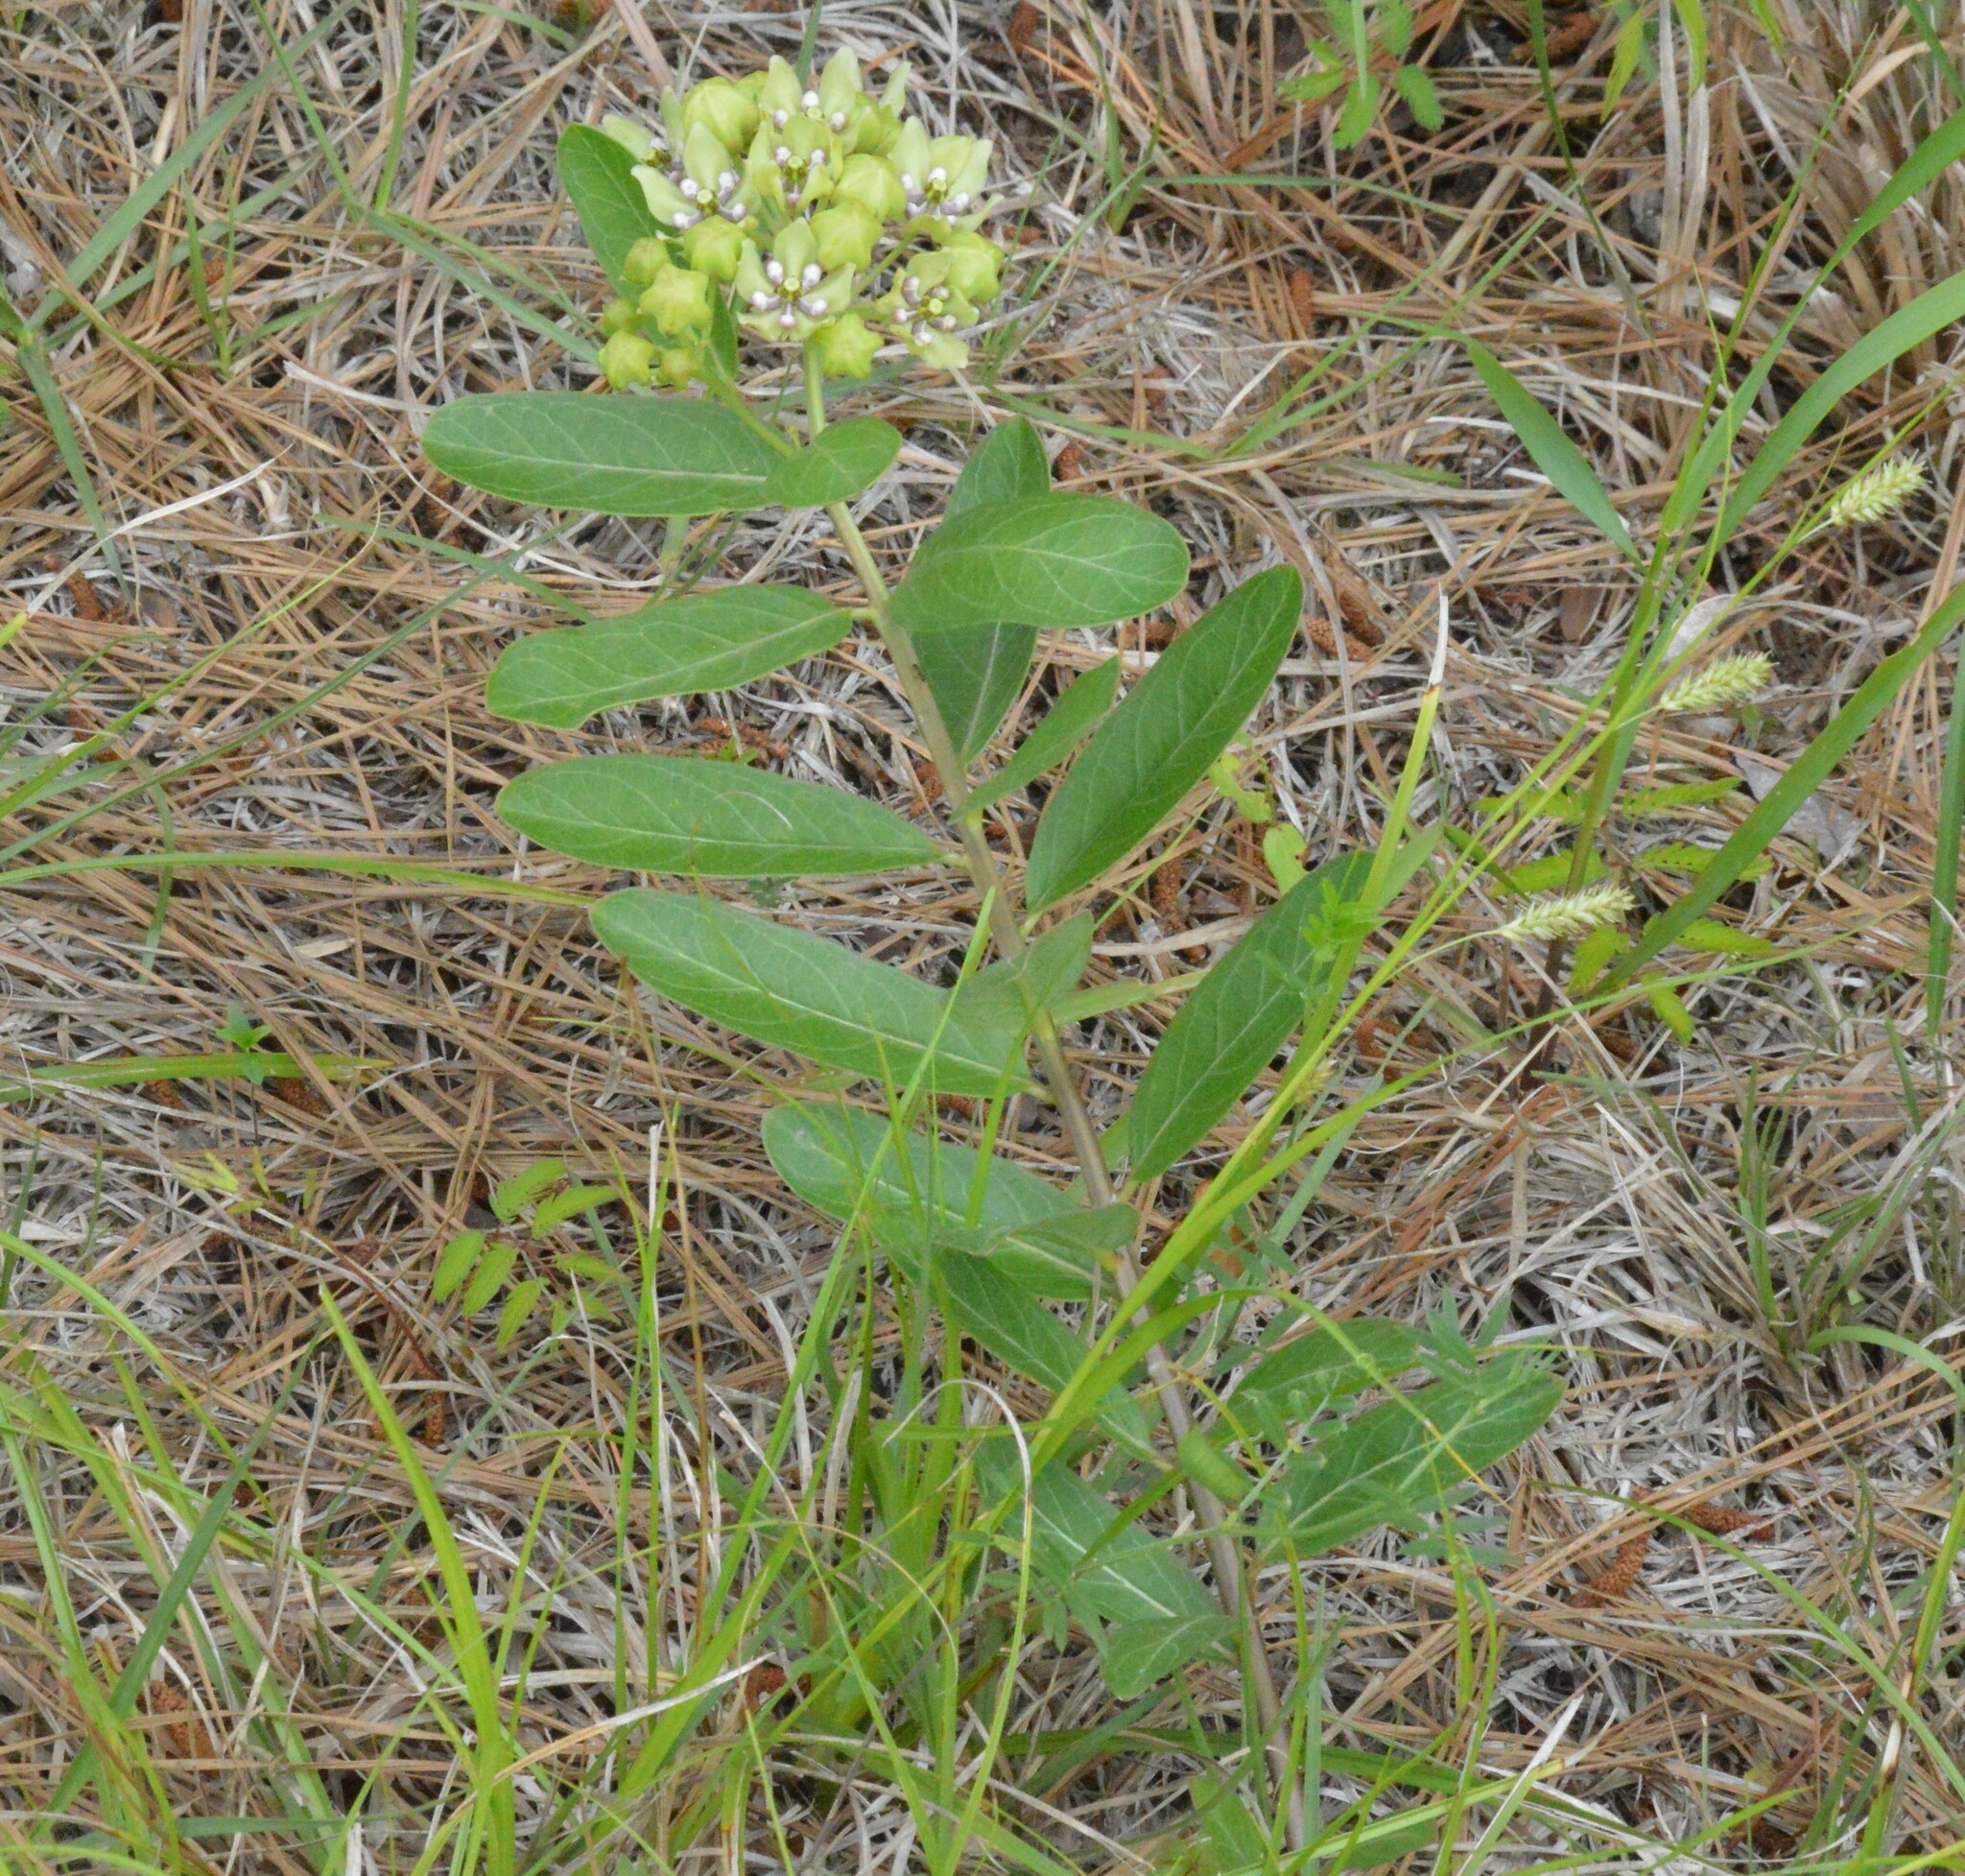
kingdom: Plantae
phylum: Tracheophyta
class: Magnoliopsida
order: Gentianales
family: Apocynaceae
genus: Asclepias
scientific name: Asclepias viridis
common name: Antelope-horns
